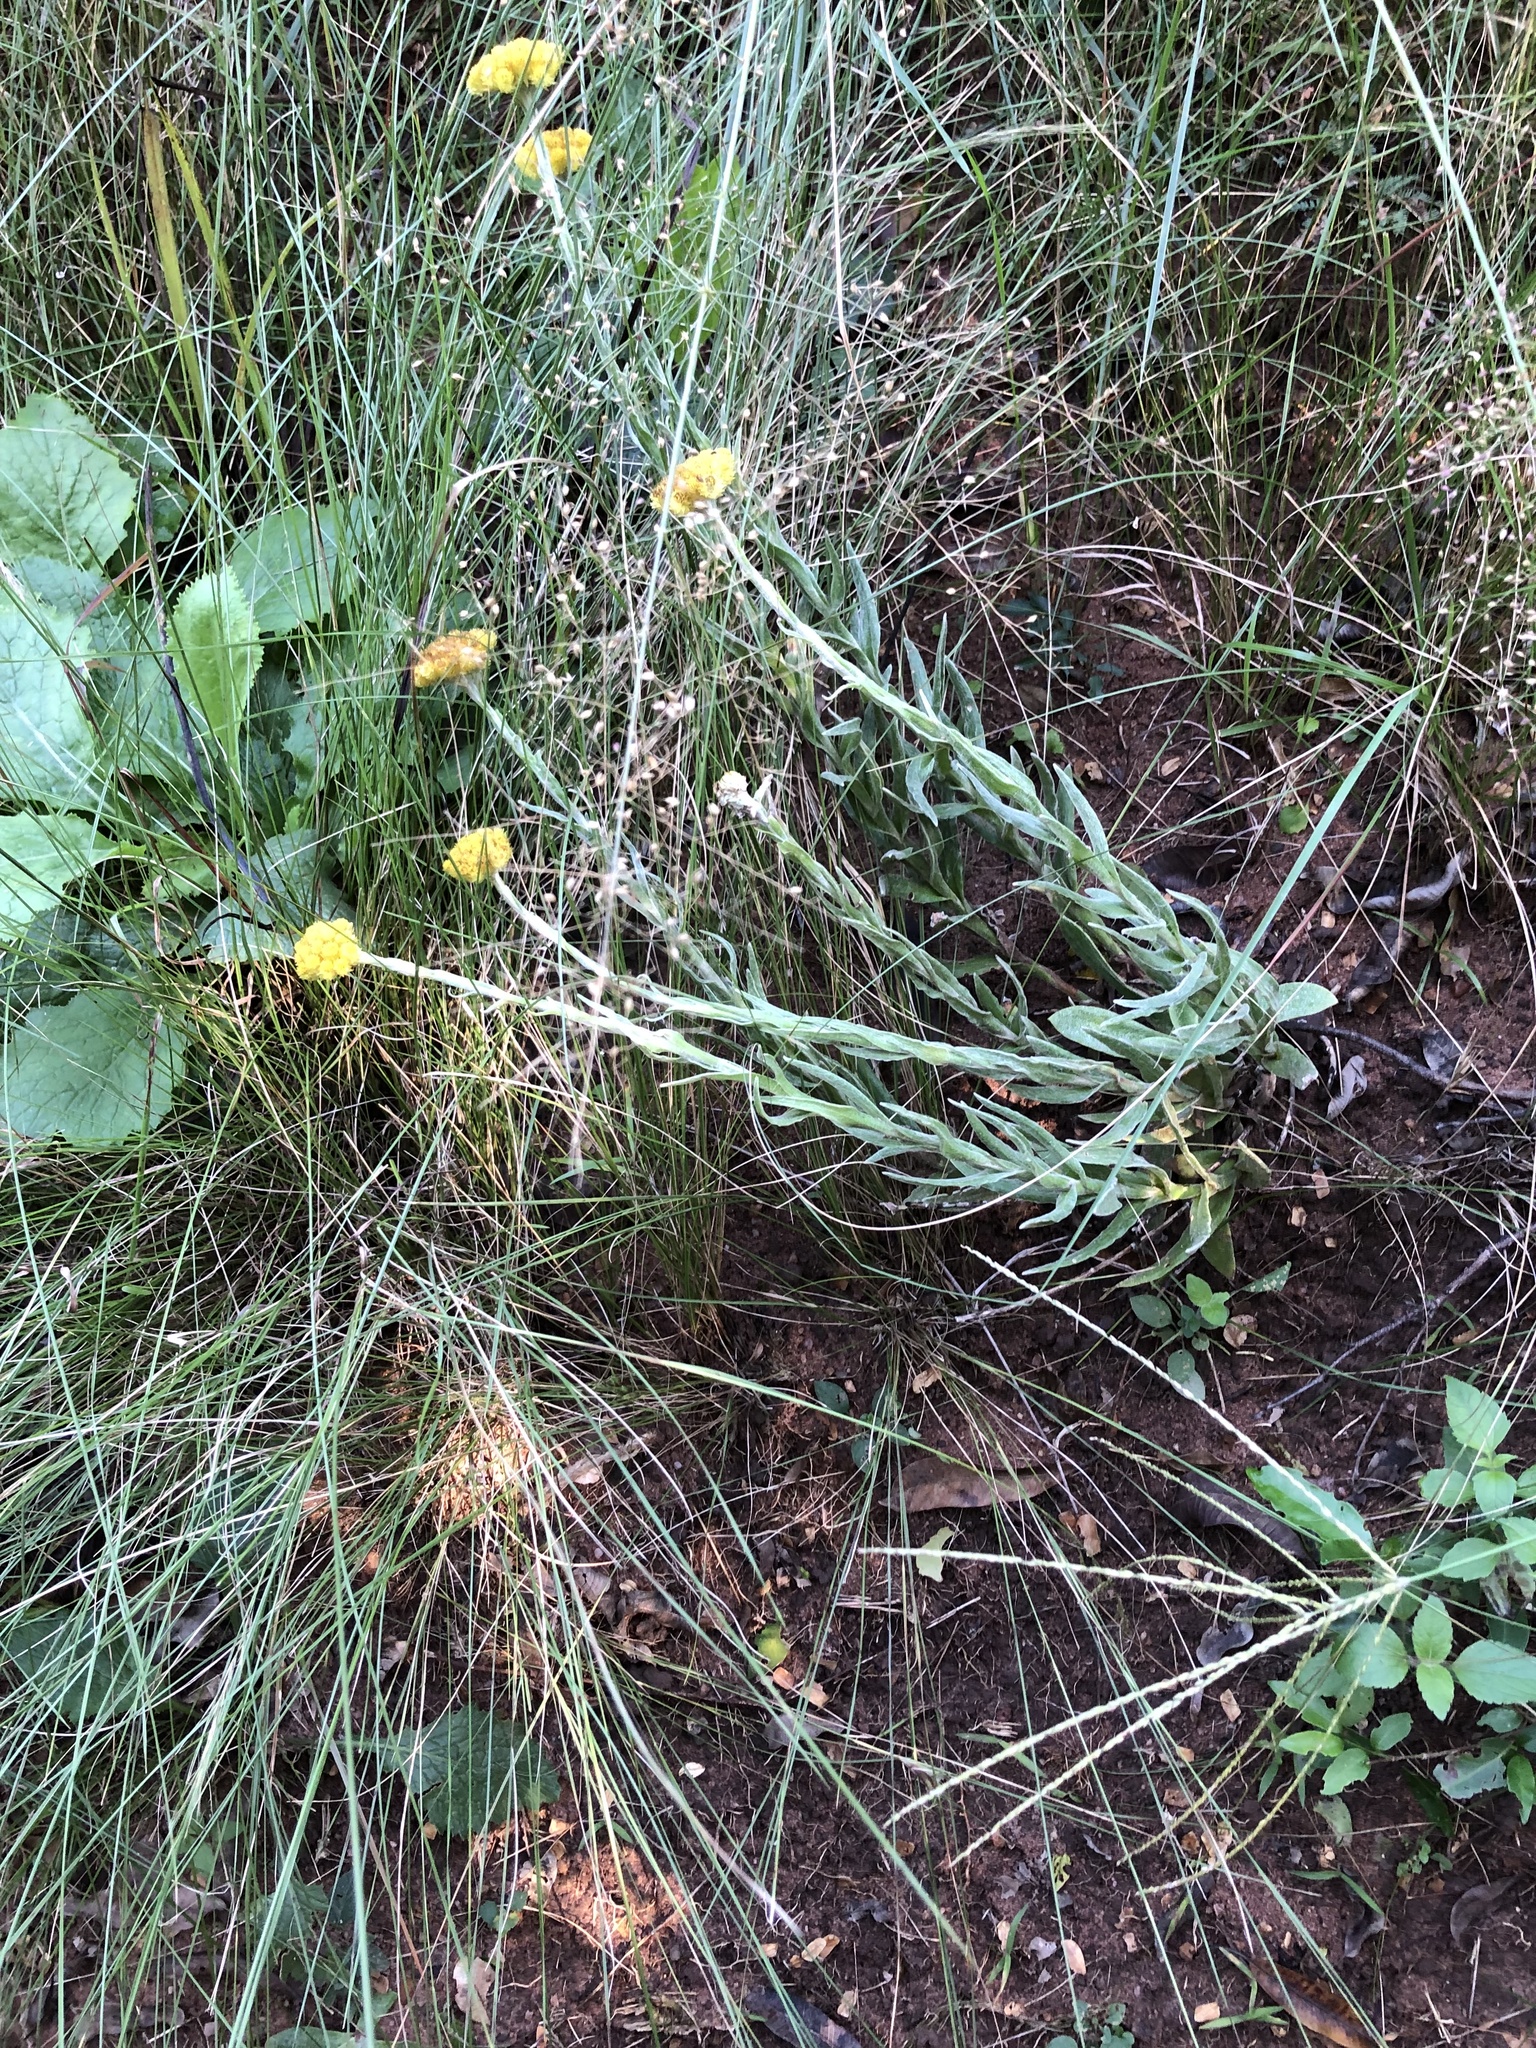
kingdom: Plantae
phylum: Tracheophyta
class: Magnoliopsida
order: Asterales
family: Asteraceae
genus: Helichrysum
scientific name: Helichrysum auriceps
